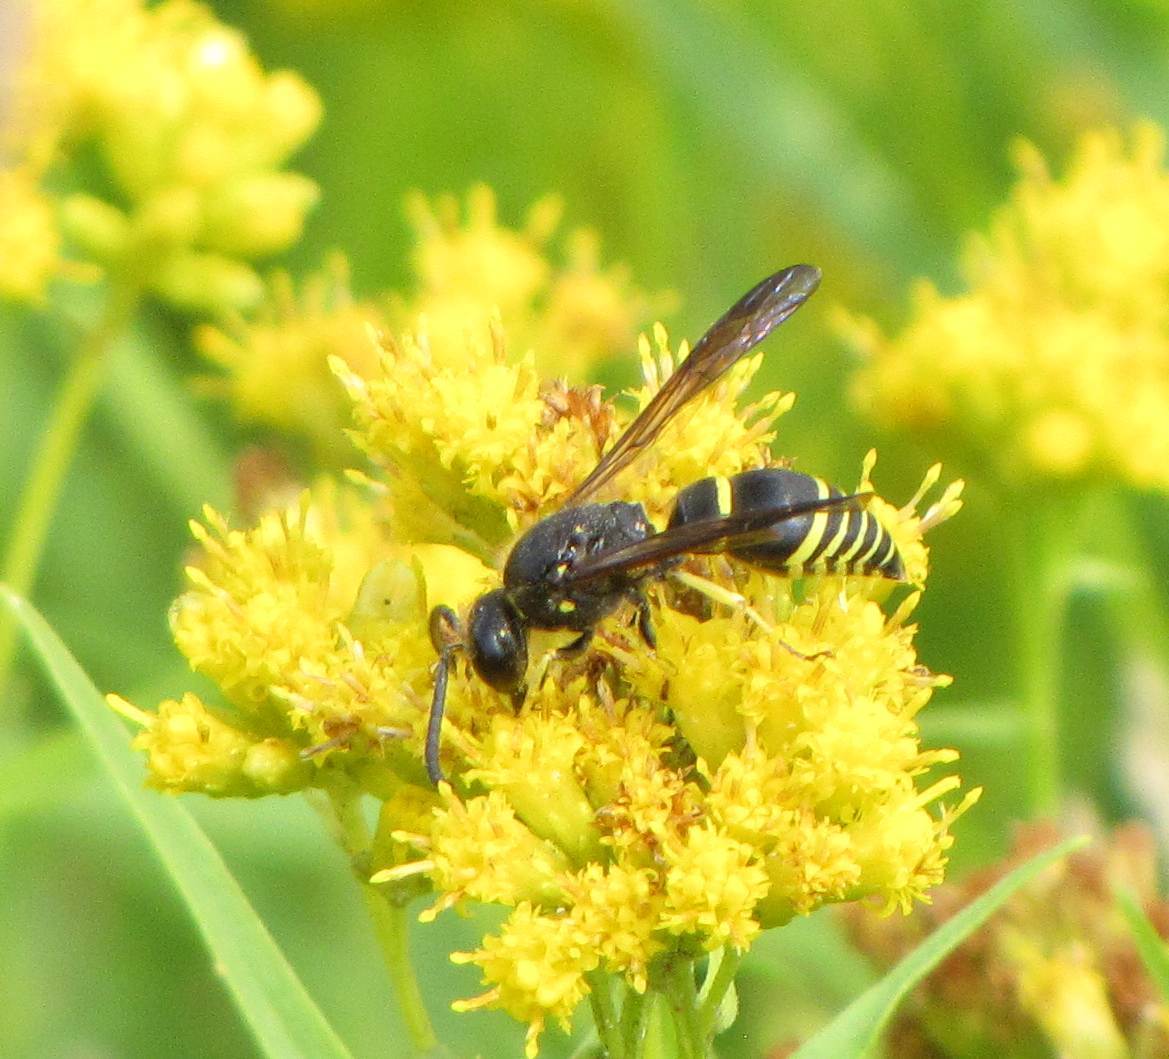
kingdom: Animalia
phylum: Arthropoda
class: Insecta
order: Hymenoptera
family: Vespidae
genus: Ancistrocerus
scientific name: Ancistrocerus
